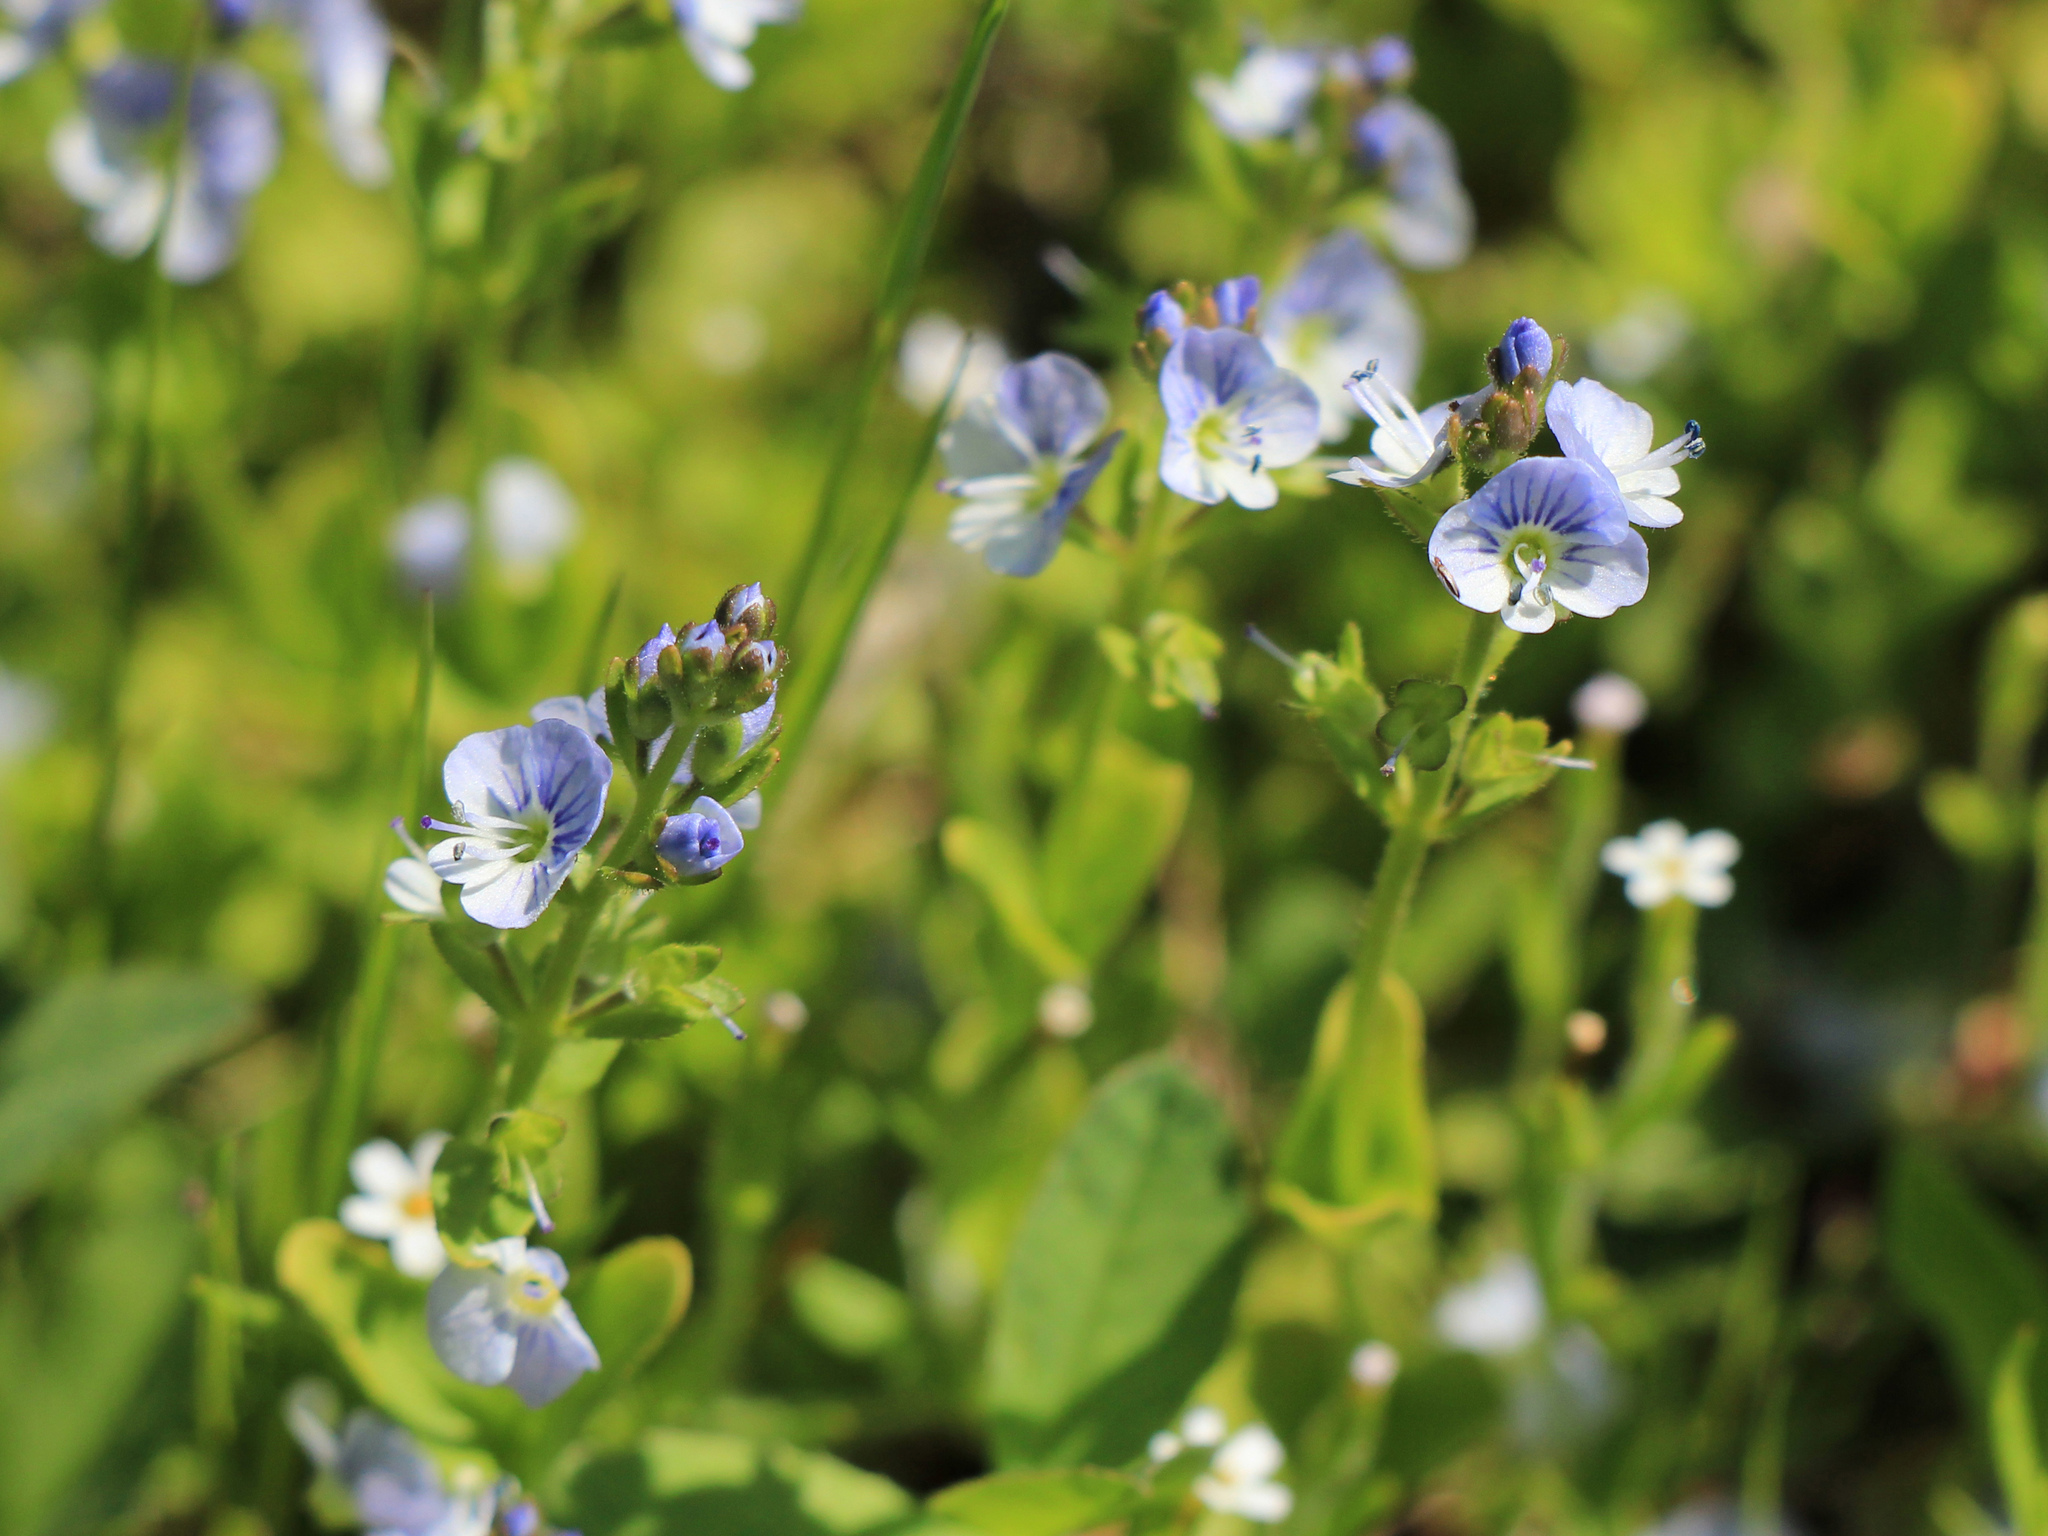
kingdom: Plantae
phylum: Tracheophyta
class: Magnoliopsida
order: Lamiales
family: Plantaginaceae
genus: Veronica
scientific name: Veronica serpyllifolia
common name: Thyme-leaved speedwell
